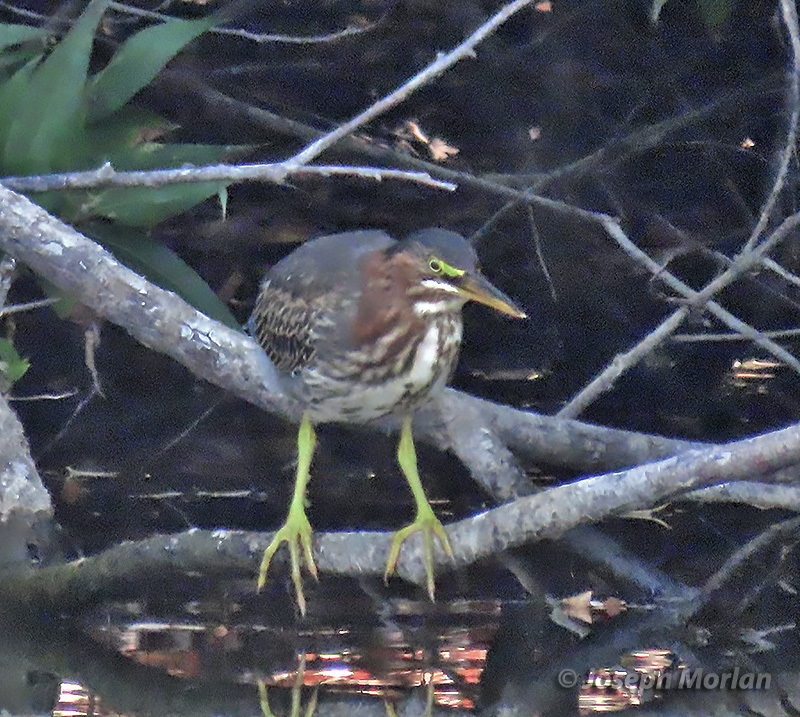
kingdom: Animalia
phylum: Chordata
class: Aves
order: Pelecaniformes
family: Ardeidae
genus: Butorides
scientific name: Butorides virescens
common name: Green heron
